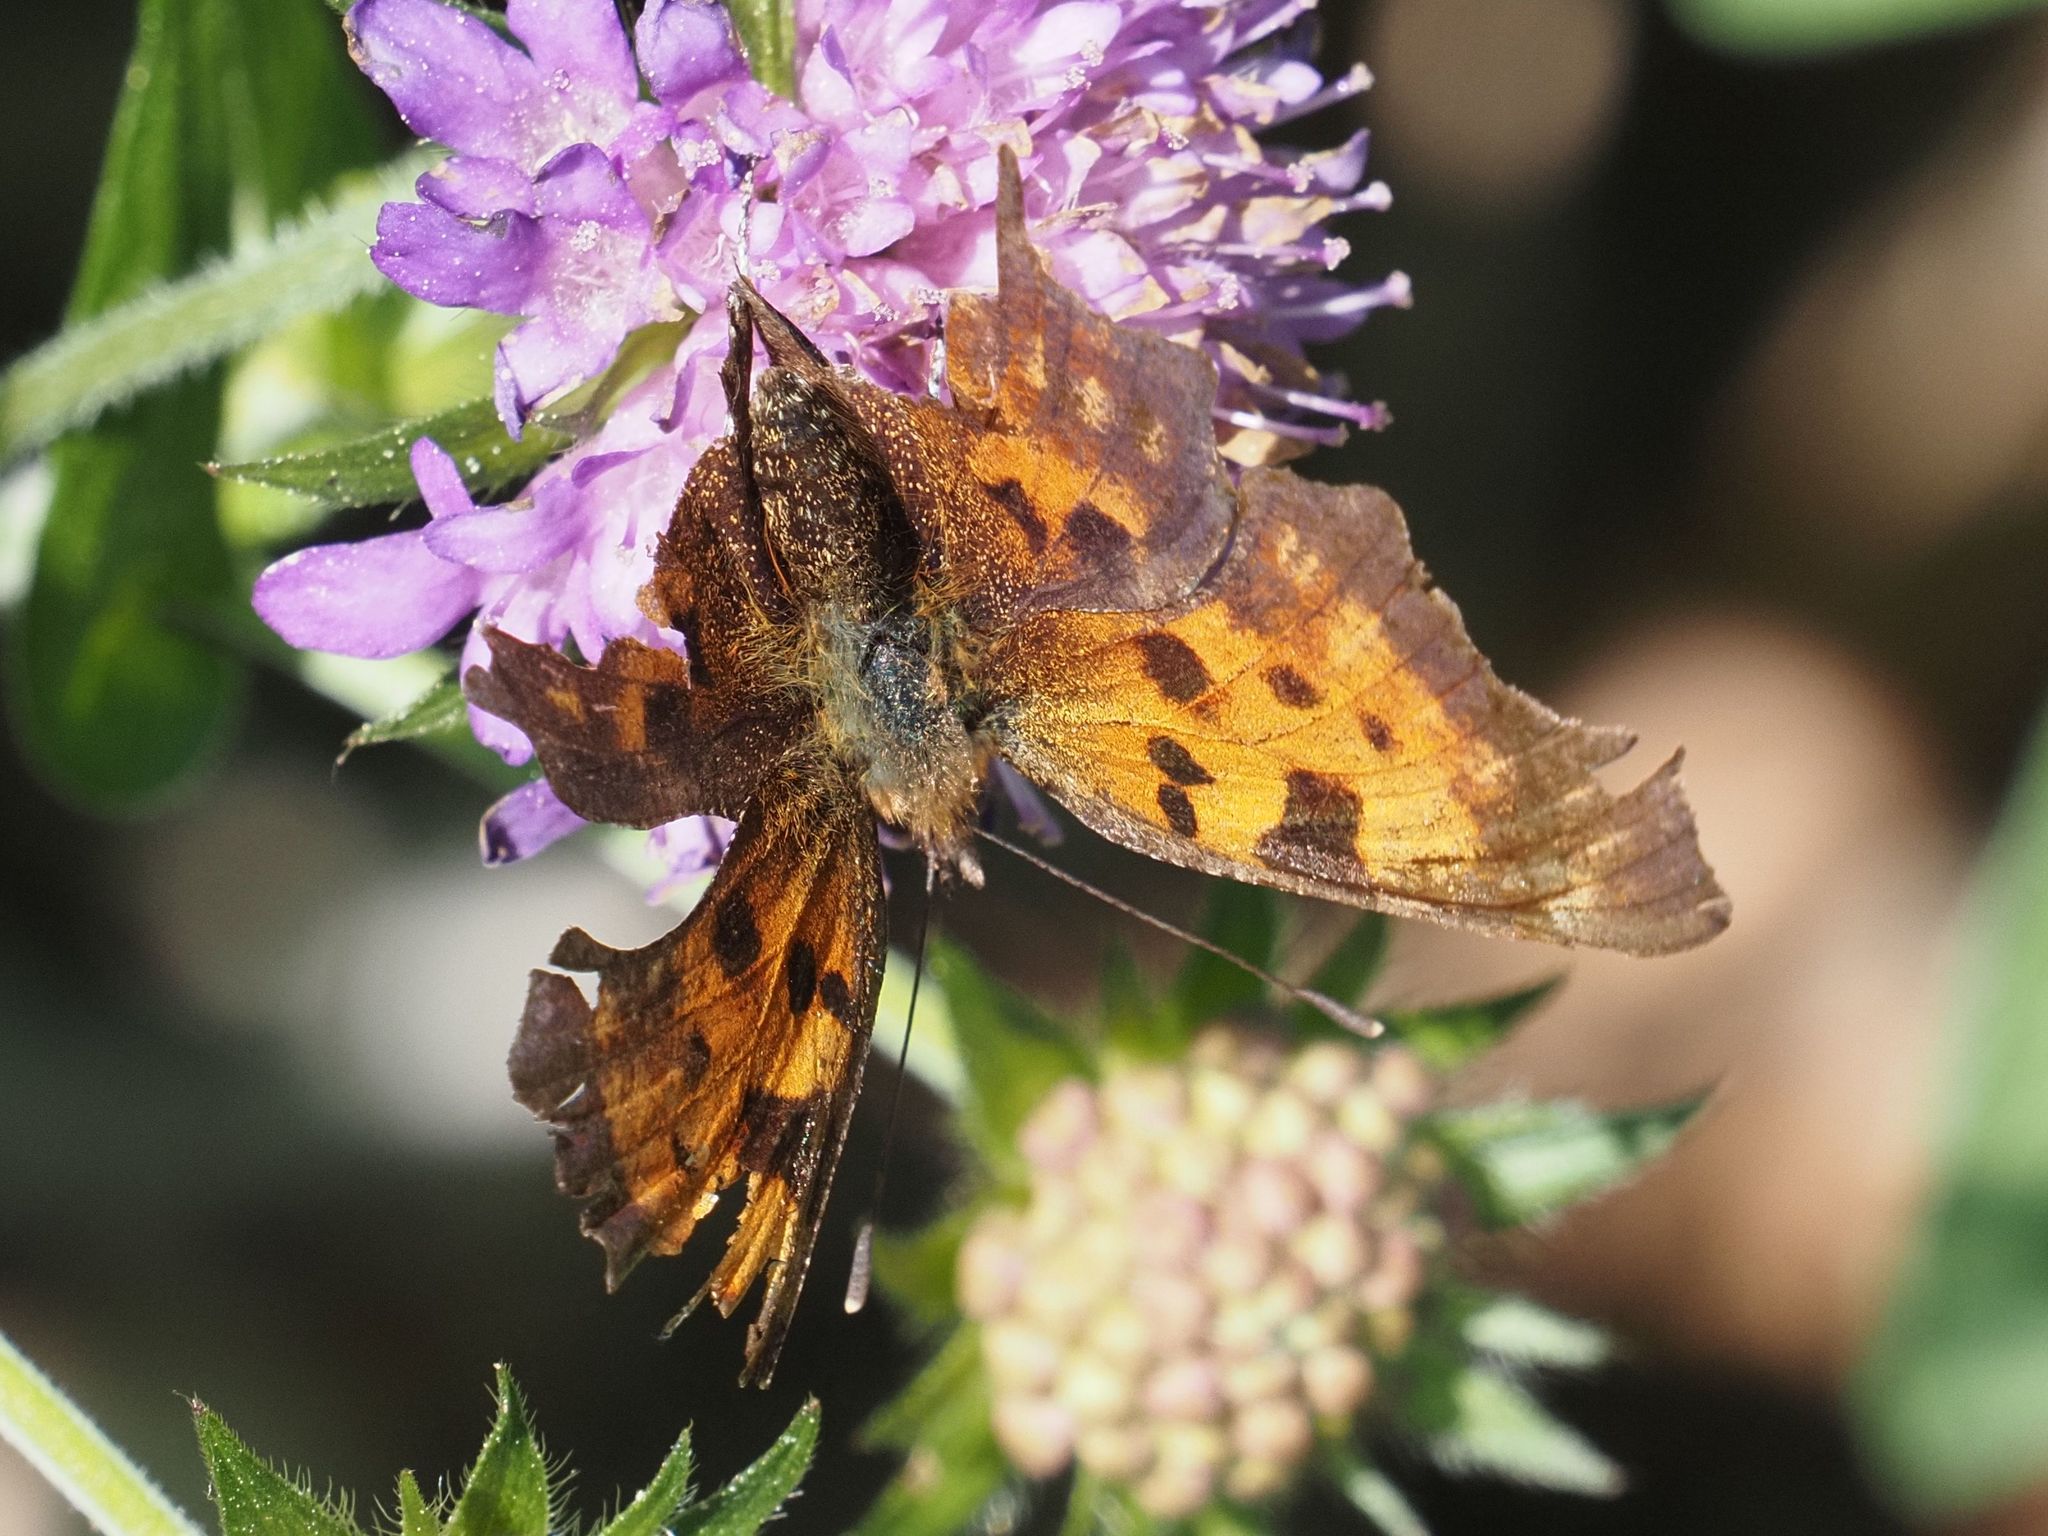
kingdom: Animalia
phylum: Arthropoda
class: Insecta
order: Lepidoptera
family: Nymphalidae
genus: Polygonia
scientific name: Polygonia c-album
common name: Comma
